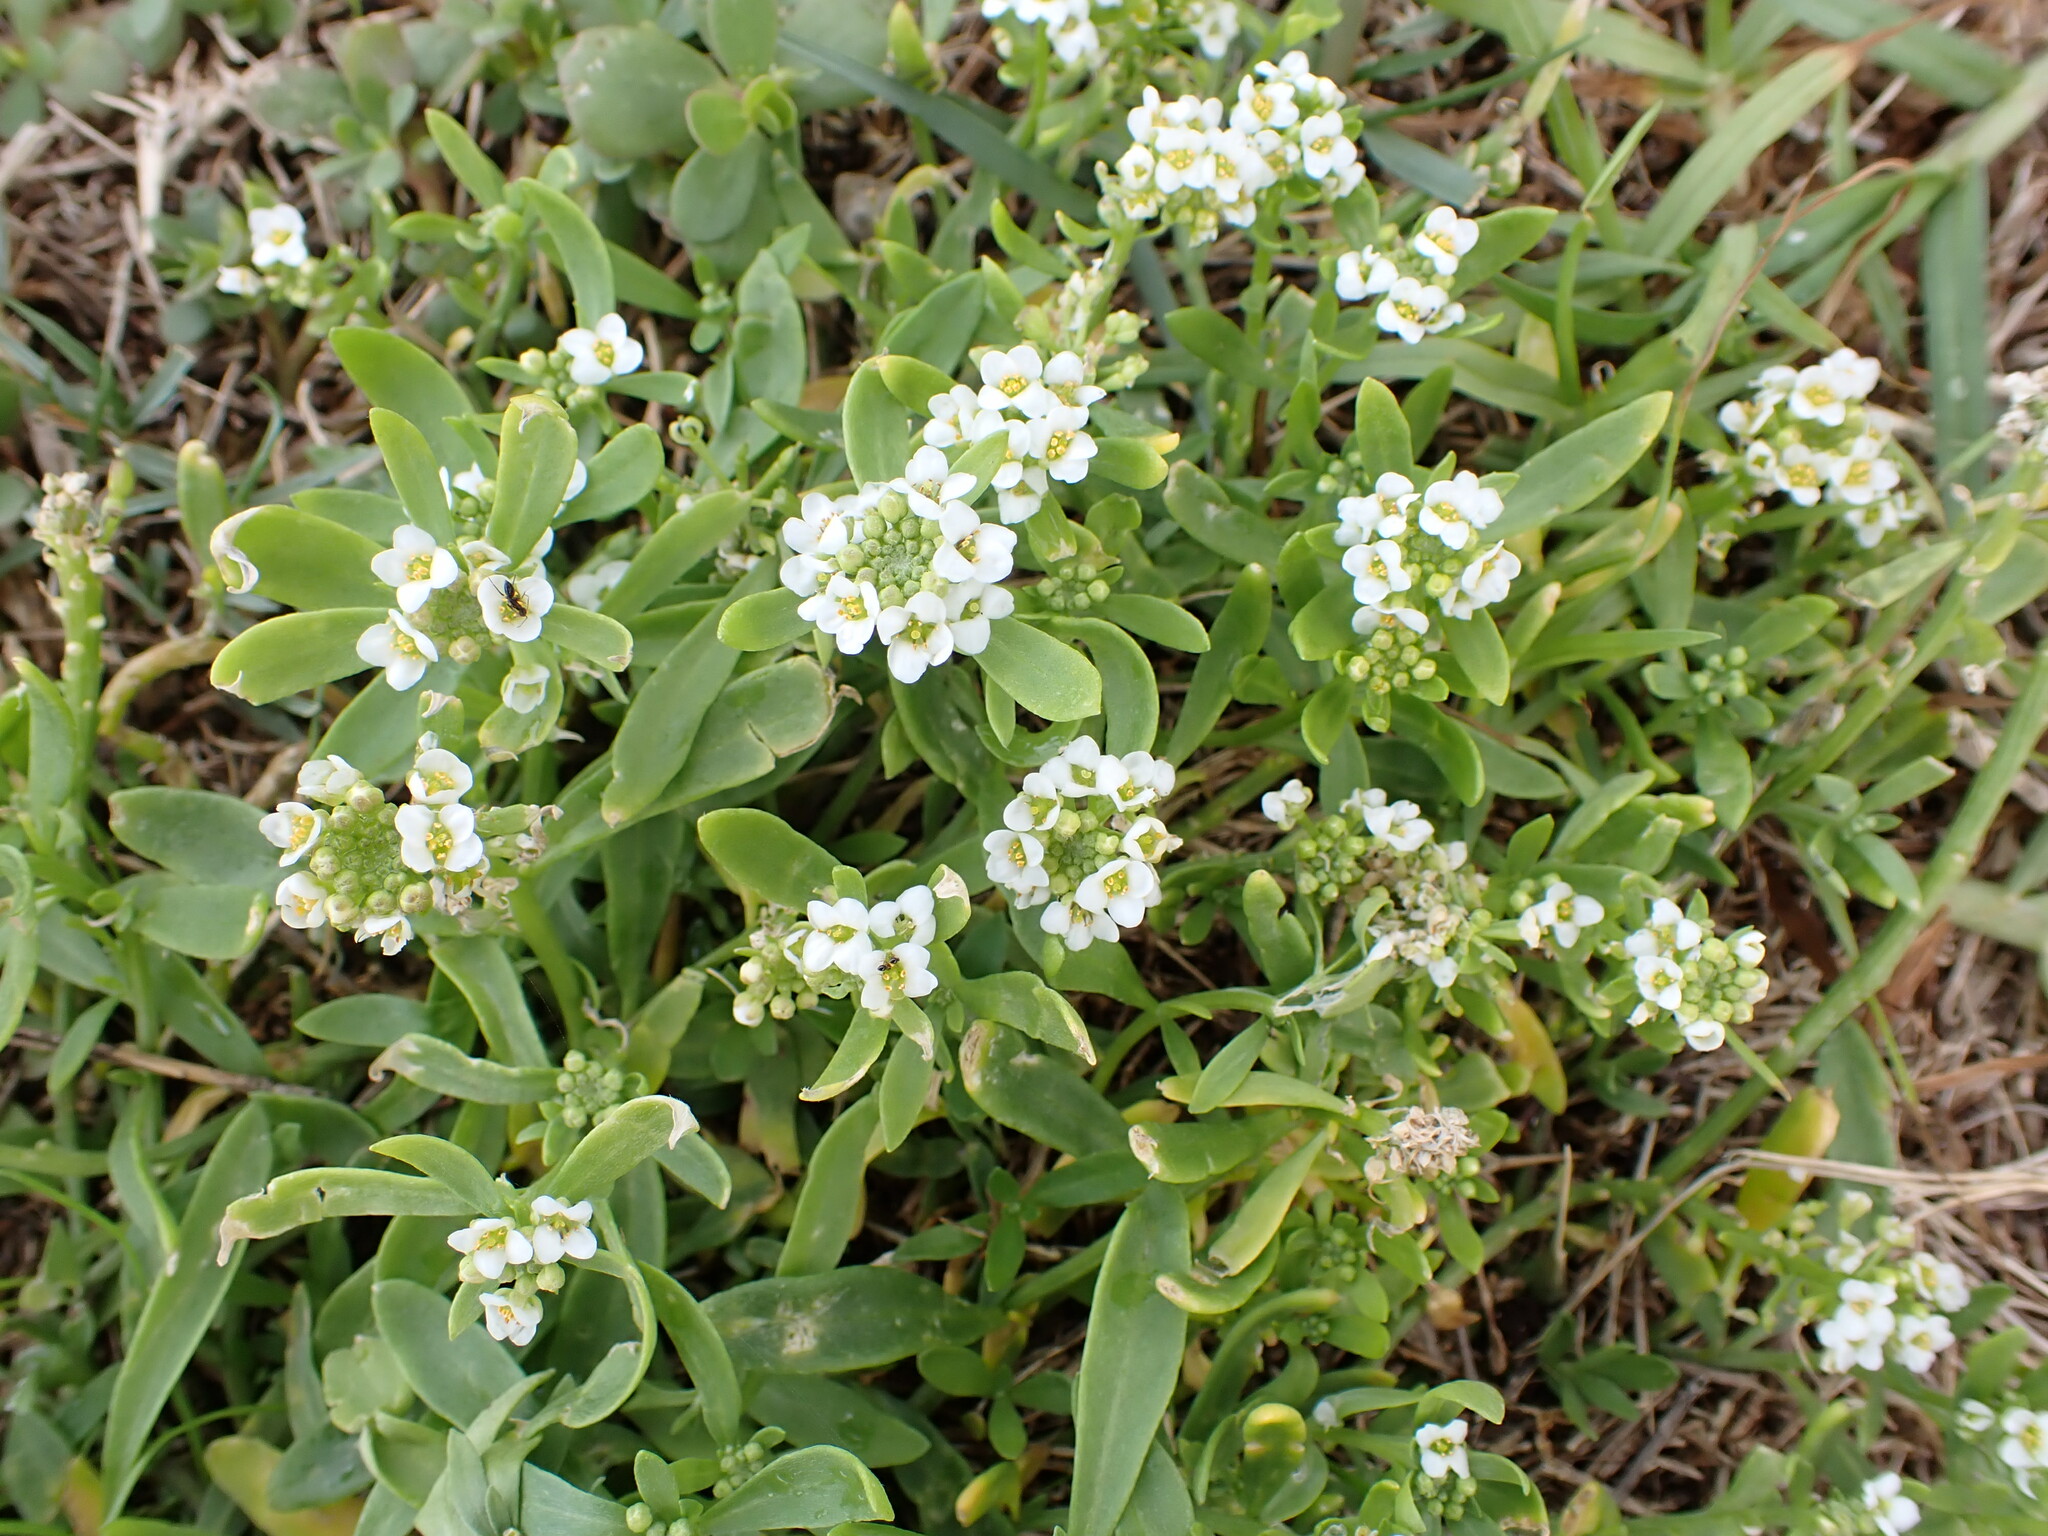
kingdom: Plantae
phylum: Tracheophyta
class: Magnoliopsida
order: Brassicales
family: Brassicaceae
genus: Lobularia
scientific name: Lobularia maritima
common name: Sweet alison
